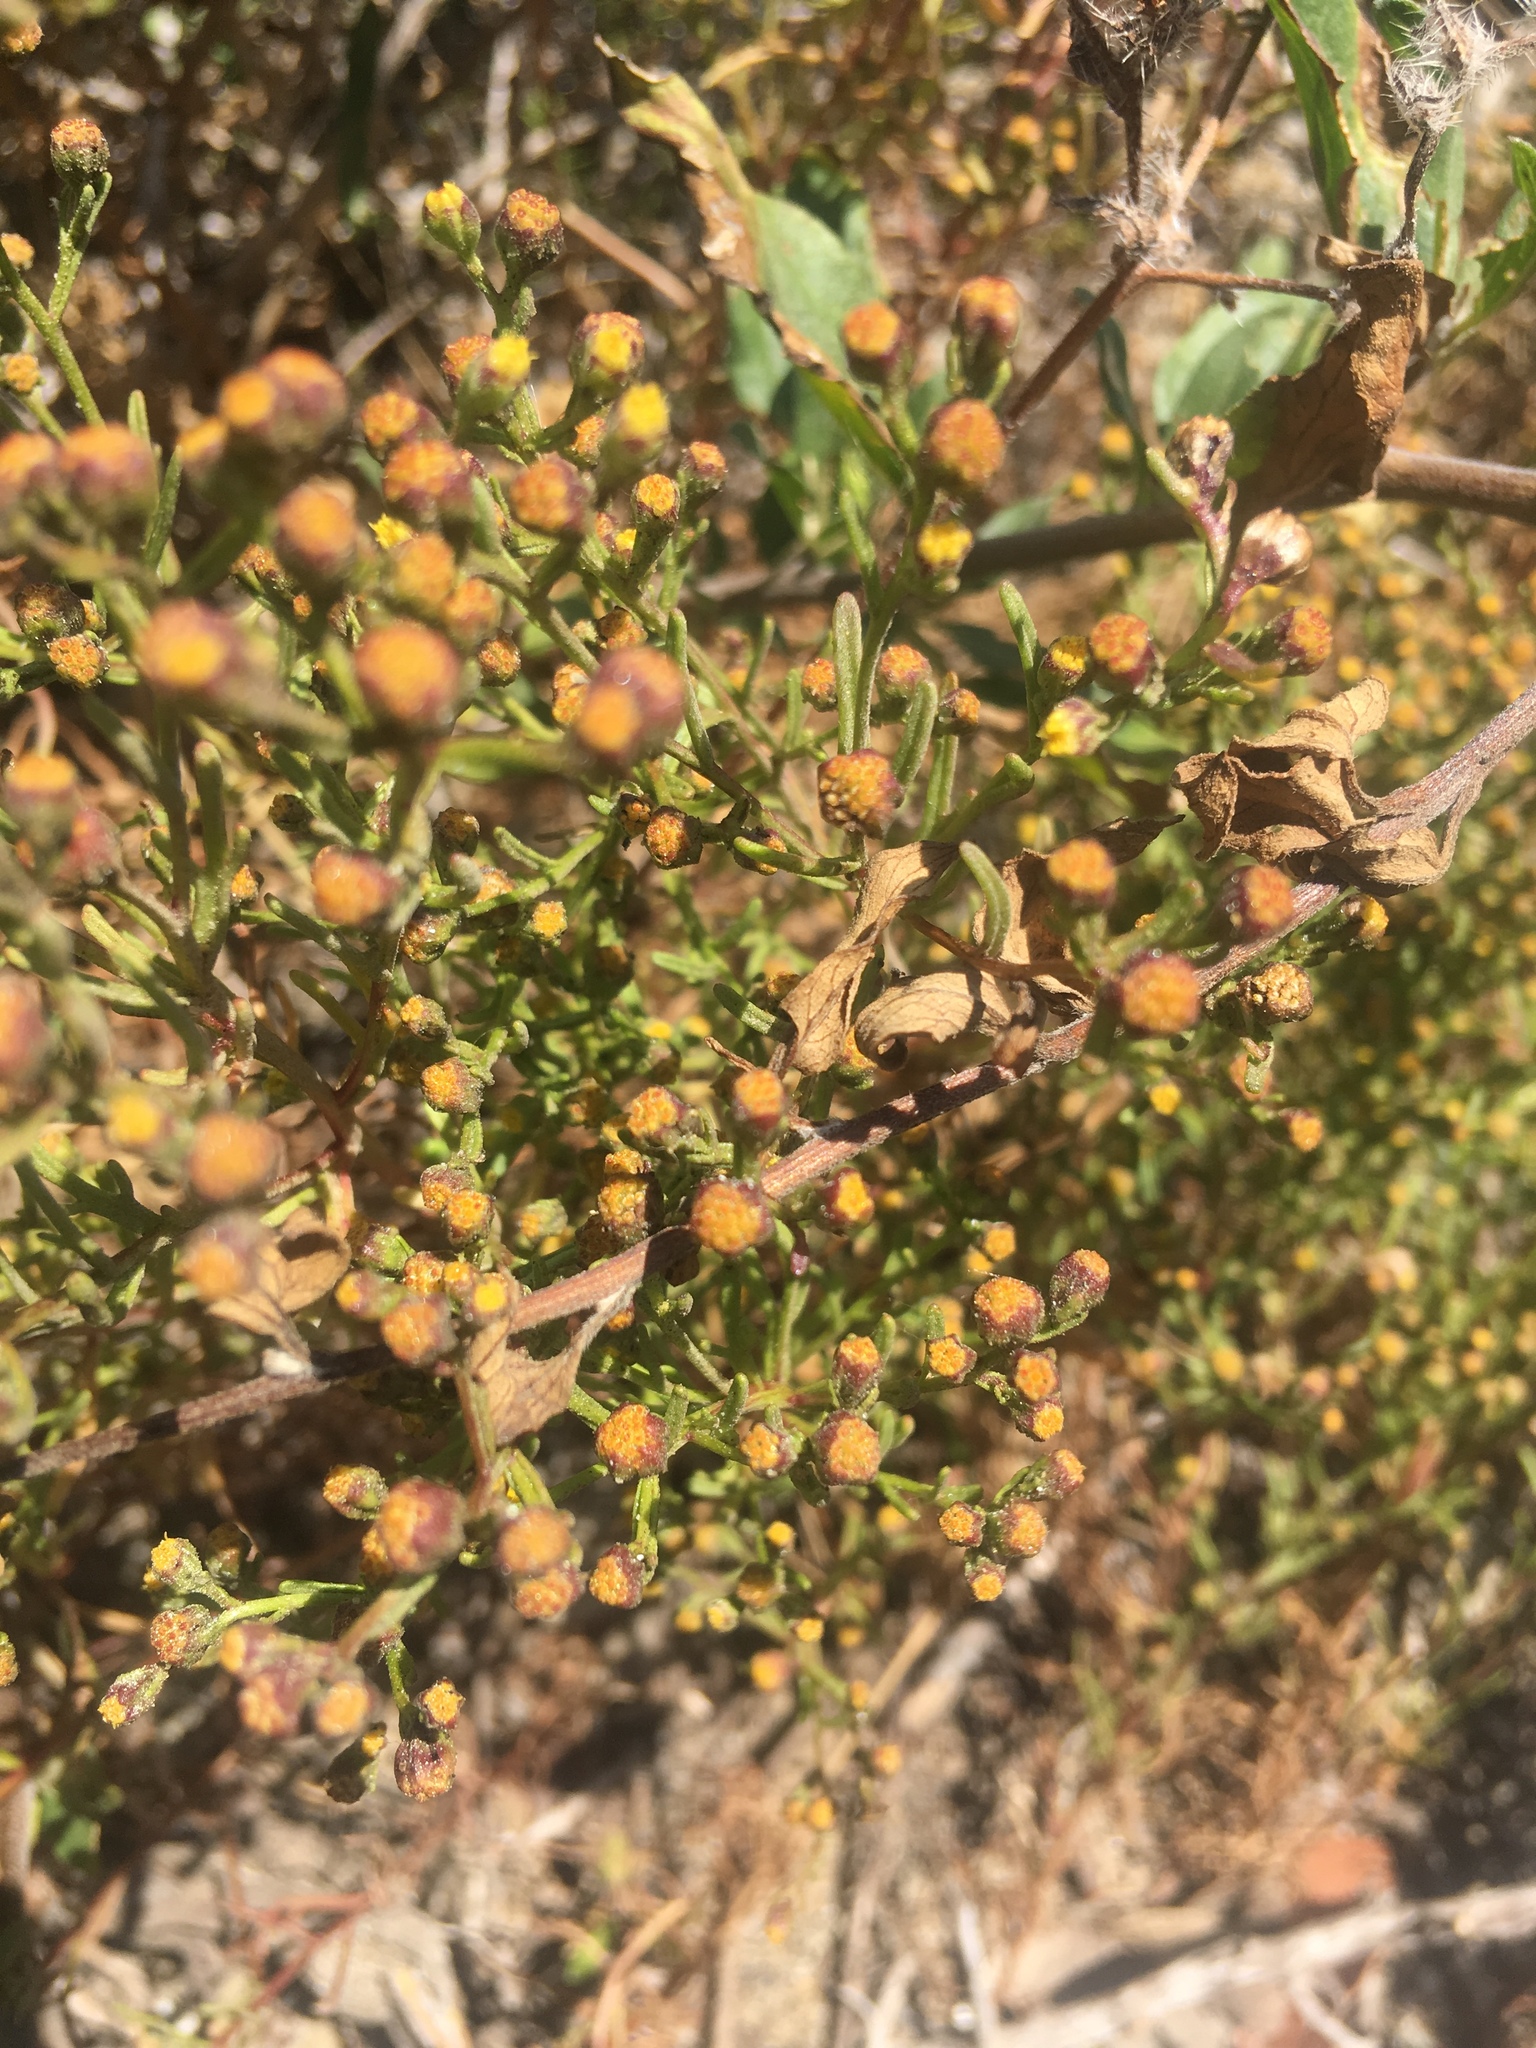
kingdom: Plantae
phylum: Tracheophyta
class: Magnoliopsida
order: Asterales
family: Asteraceae
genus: Amblyopappus
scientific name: Amblyopappus pusillus
